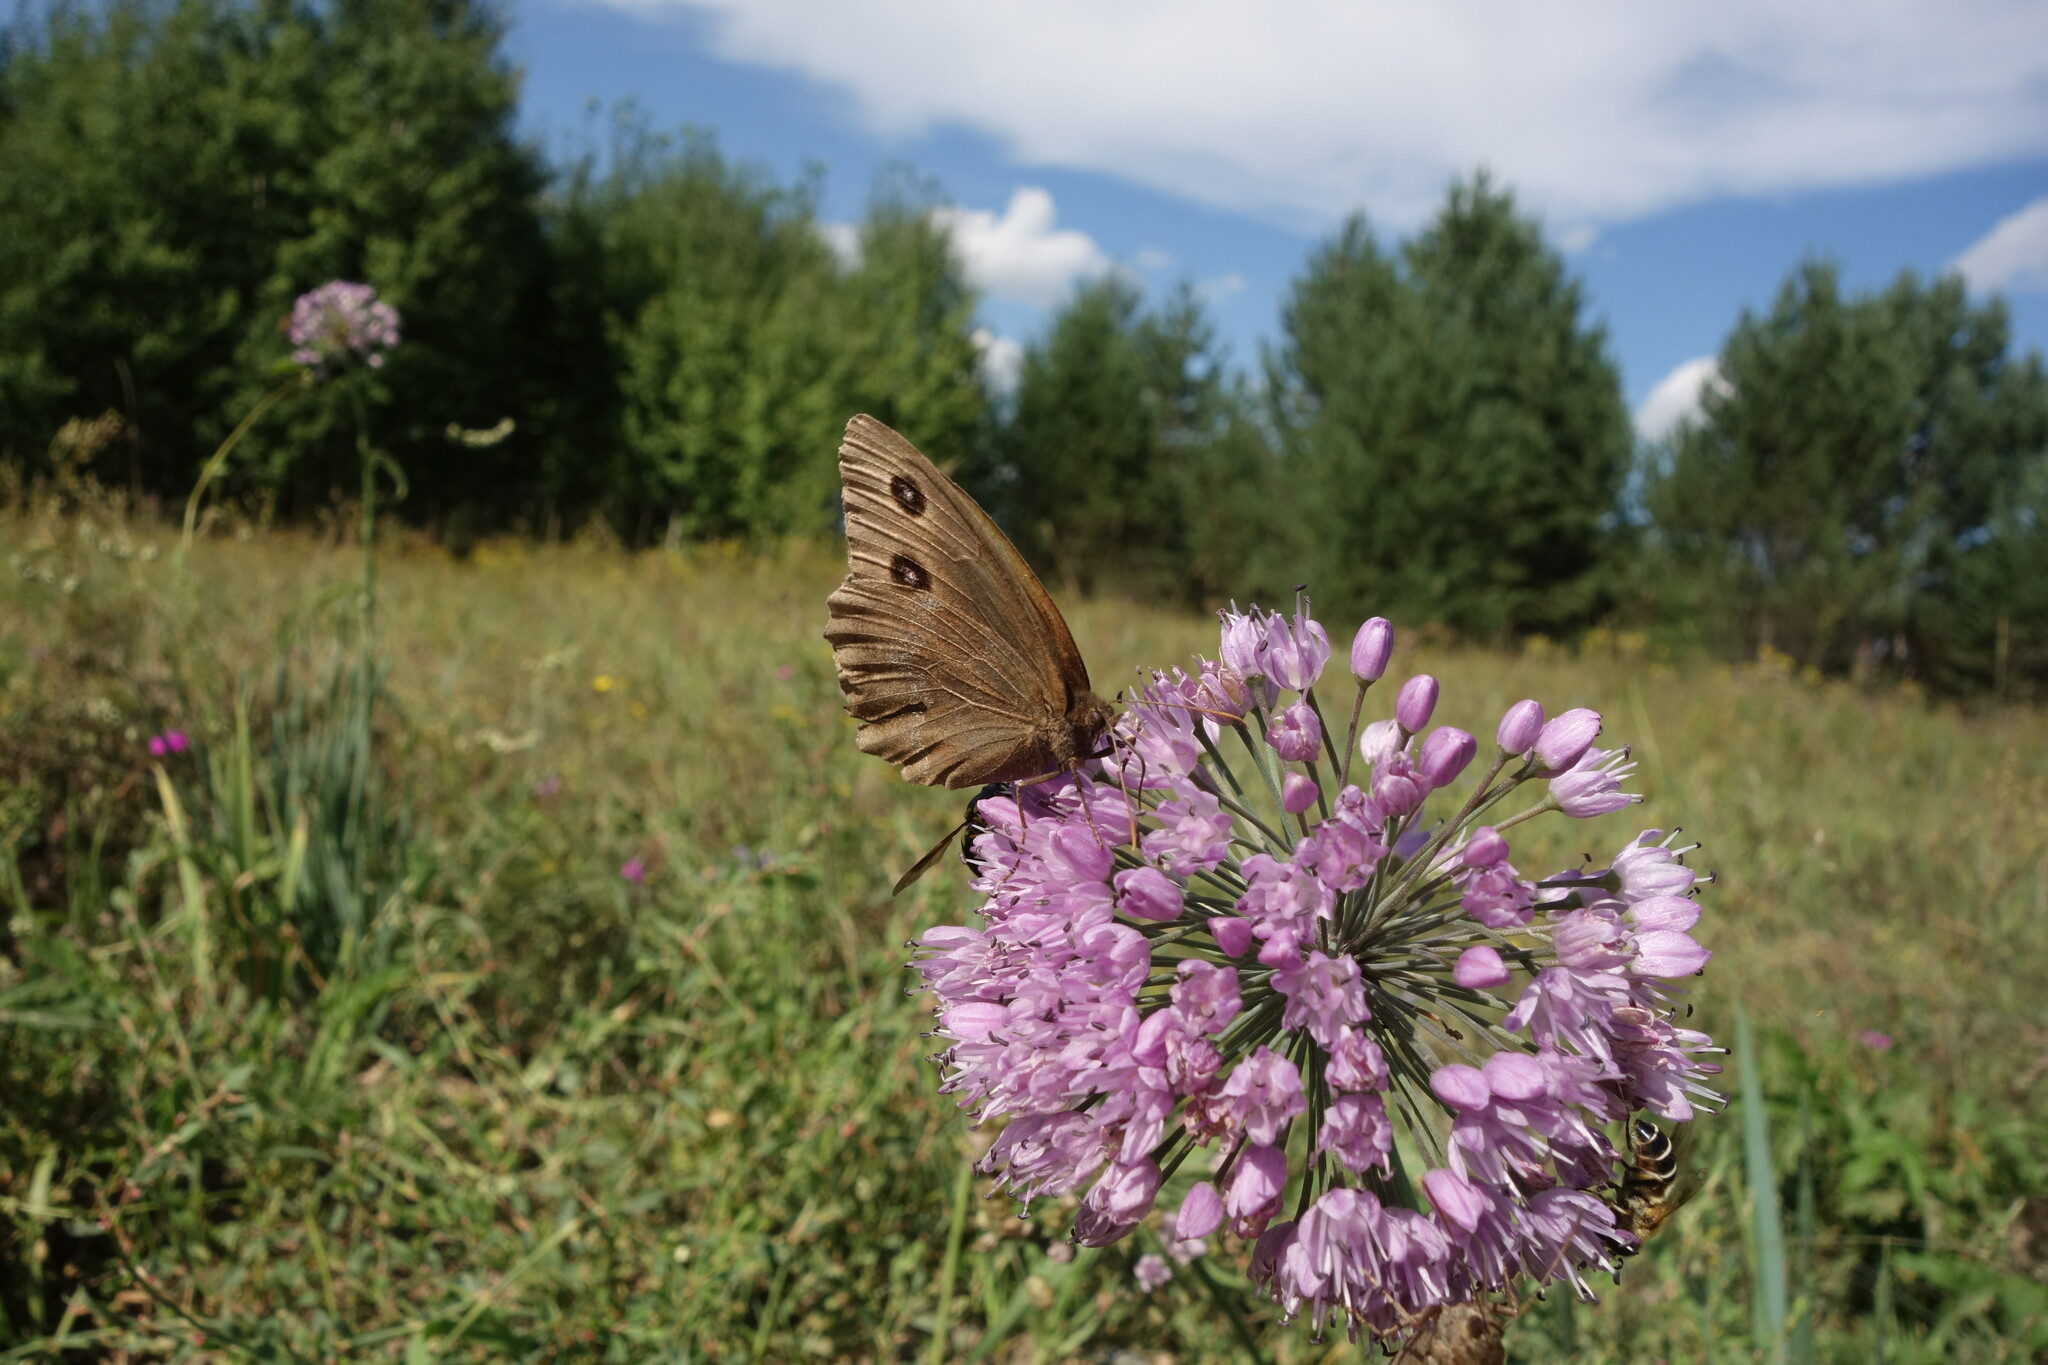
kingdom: Animalia
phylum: Arthropoda
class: Insecta
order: Lepidoptera
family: Nymphalidae
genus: Minois
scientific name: Minois dryas
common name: Dryad
